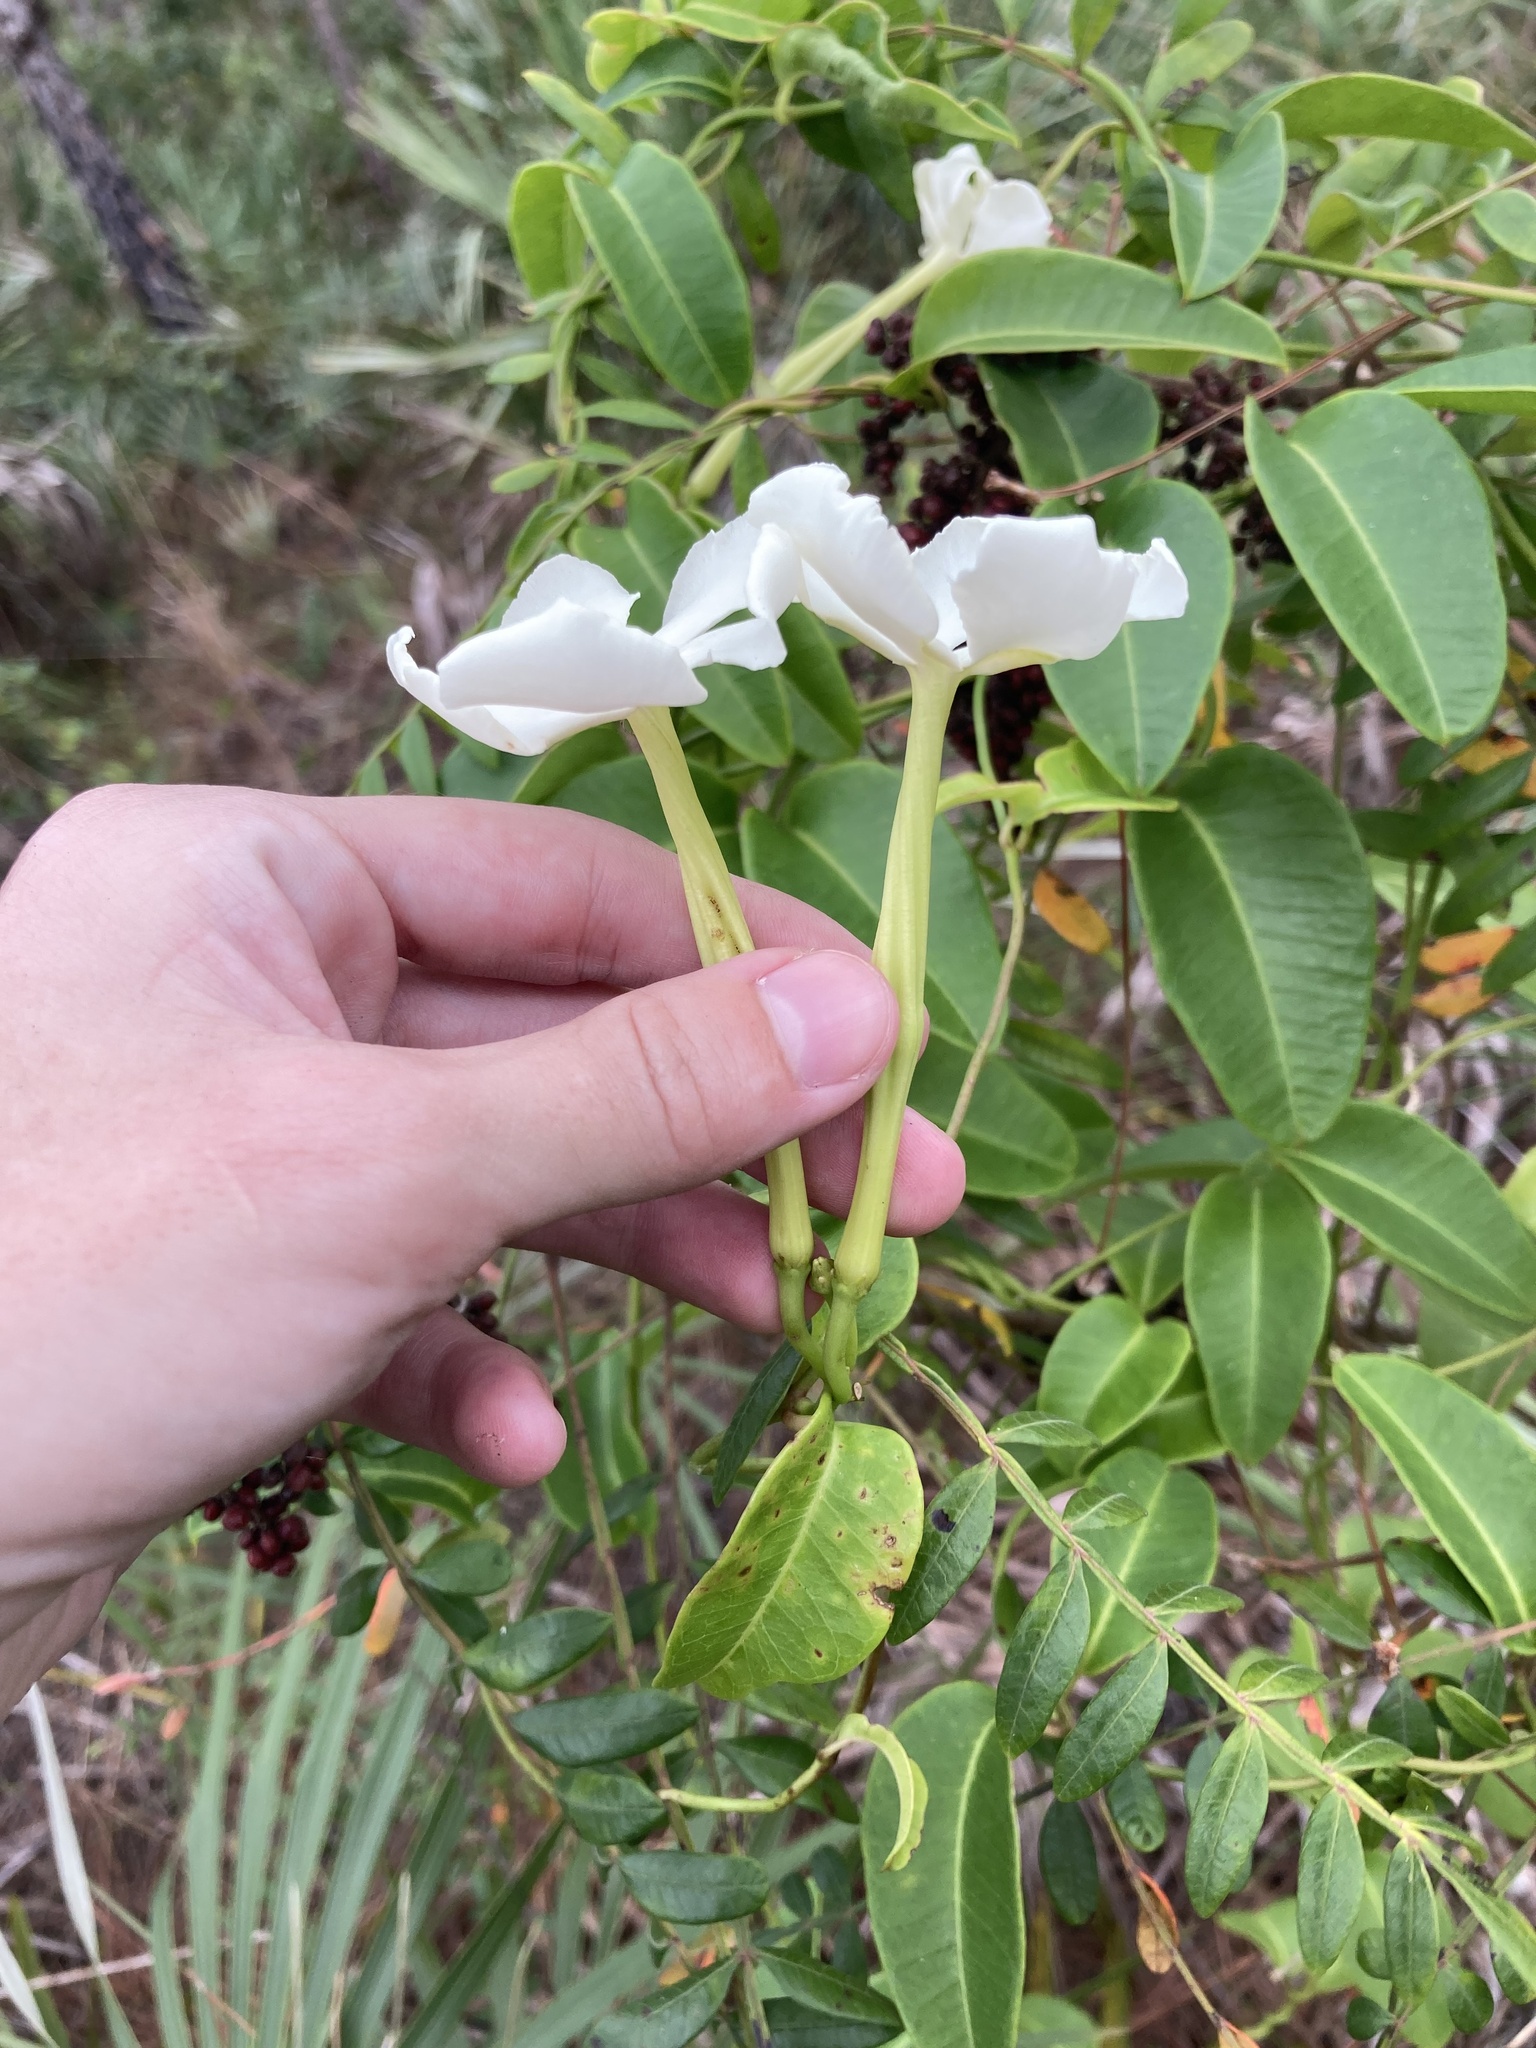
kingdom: Plantae
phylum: Tracheophyta
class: Magnoliopsida
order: Gentianales
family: Apocynaceae
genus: Echites
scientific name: Echites umbellatus
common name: Devil's potato
